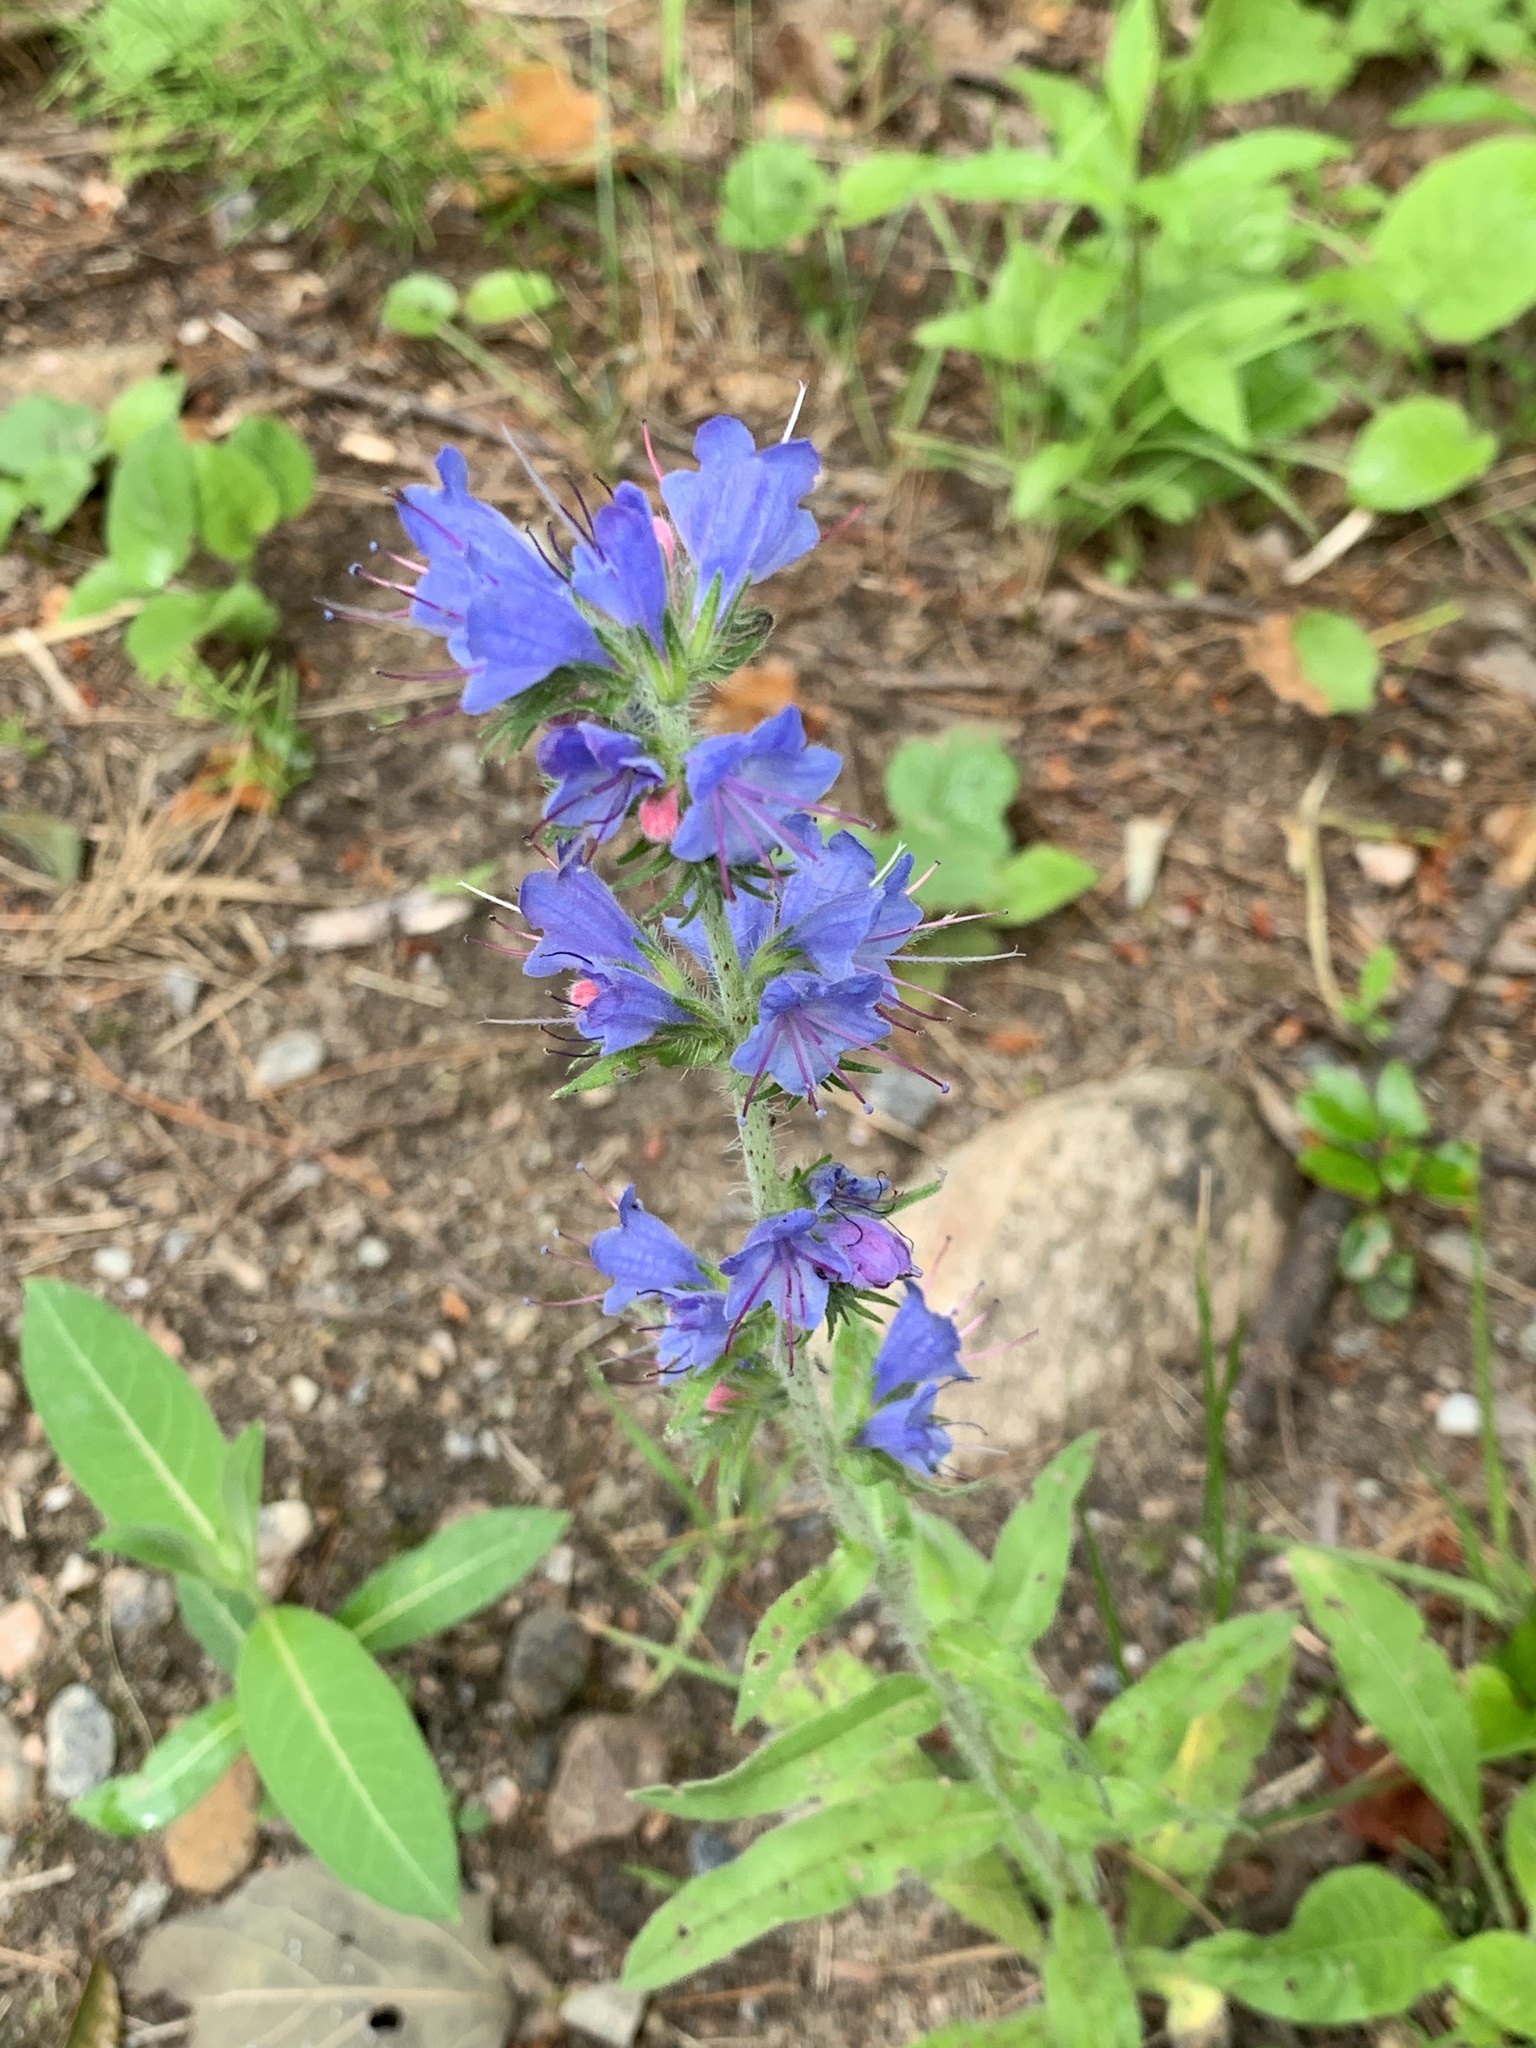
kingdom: Plantae
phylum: Tracheophyta
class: Magnoliopsida
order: Boraginales
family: Boraginaceae
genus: Echium
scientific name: Echium vulgare
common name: Common viper's bugloss
